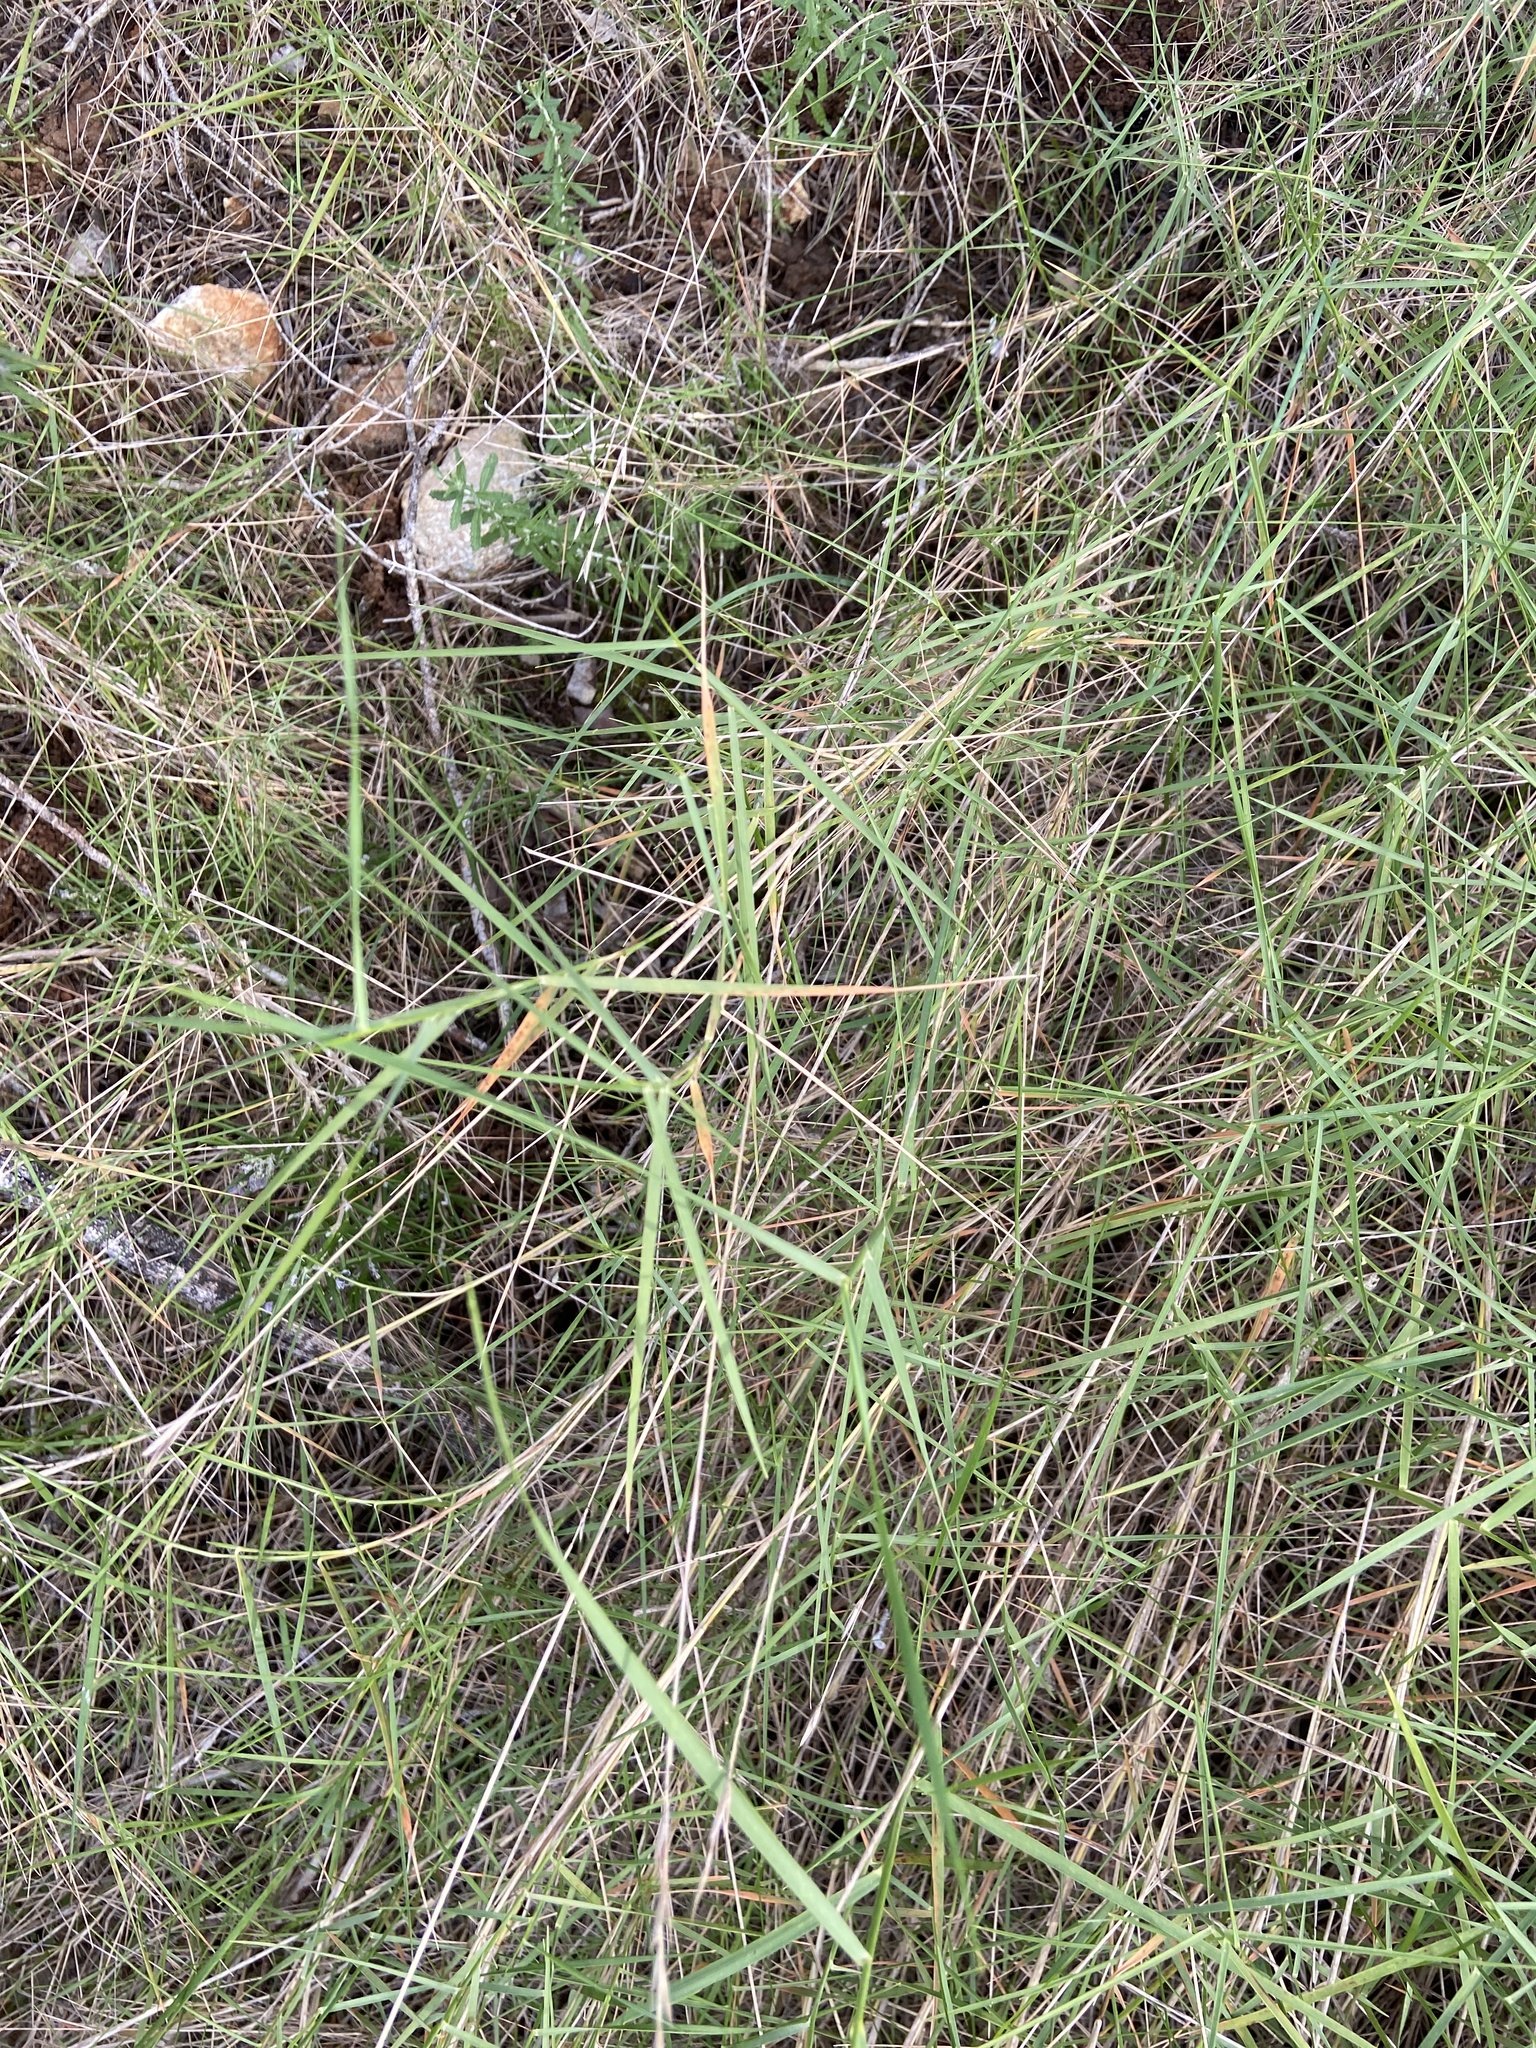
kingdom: Plantae
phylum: Tracheophyta
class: Liliopsida
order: Poales
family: Poaceae
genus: Brachypodium
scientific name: Brachypodium retusum
